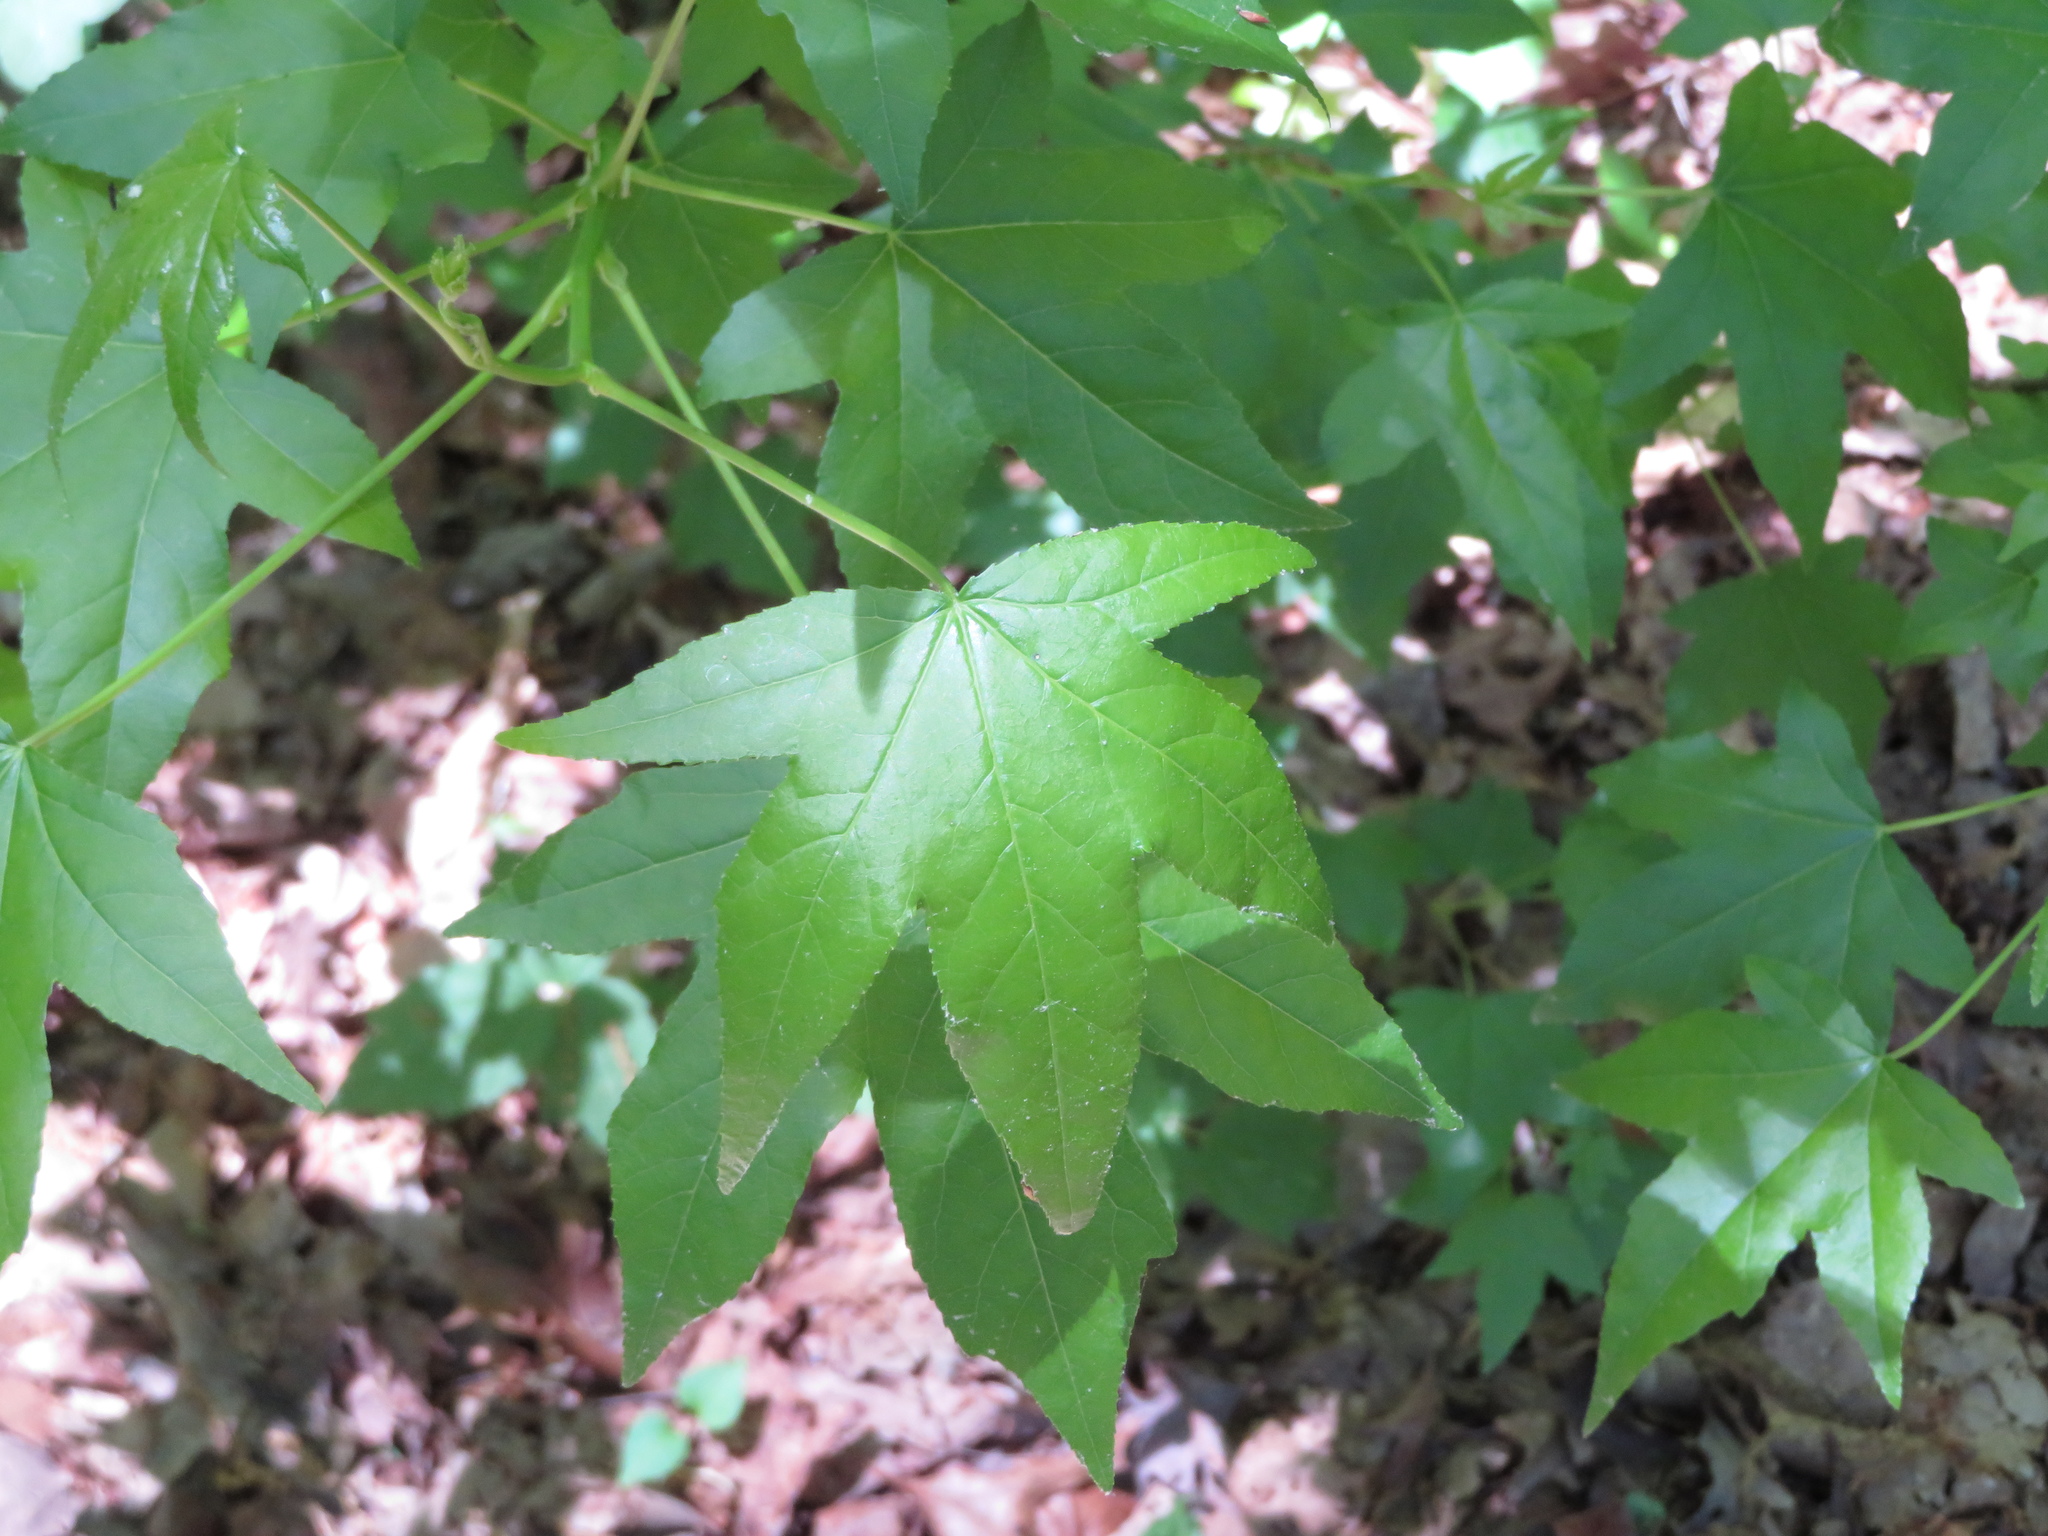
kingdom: Plantae
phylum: Tracheophyta
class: Magnoliopsida
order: Saxifragales
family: Altingiaceae
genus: Liquidambar
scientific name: Liquidambar styraciflua
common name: Sweet gum
